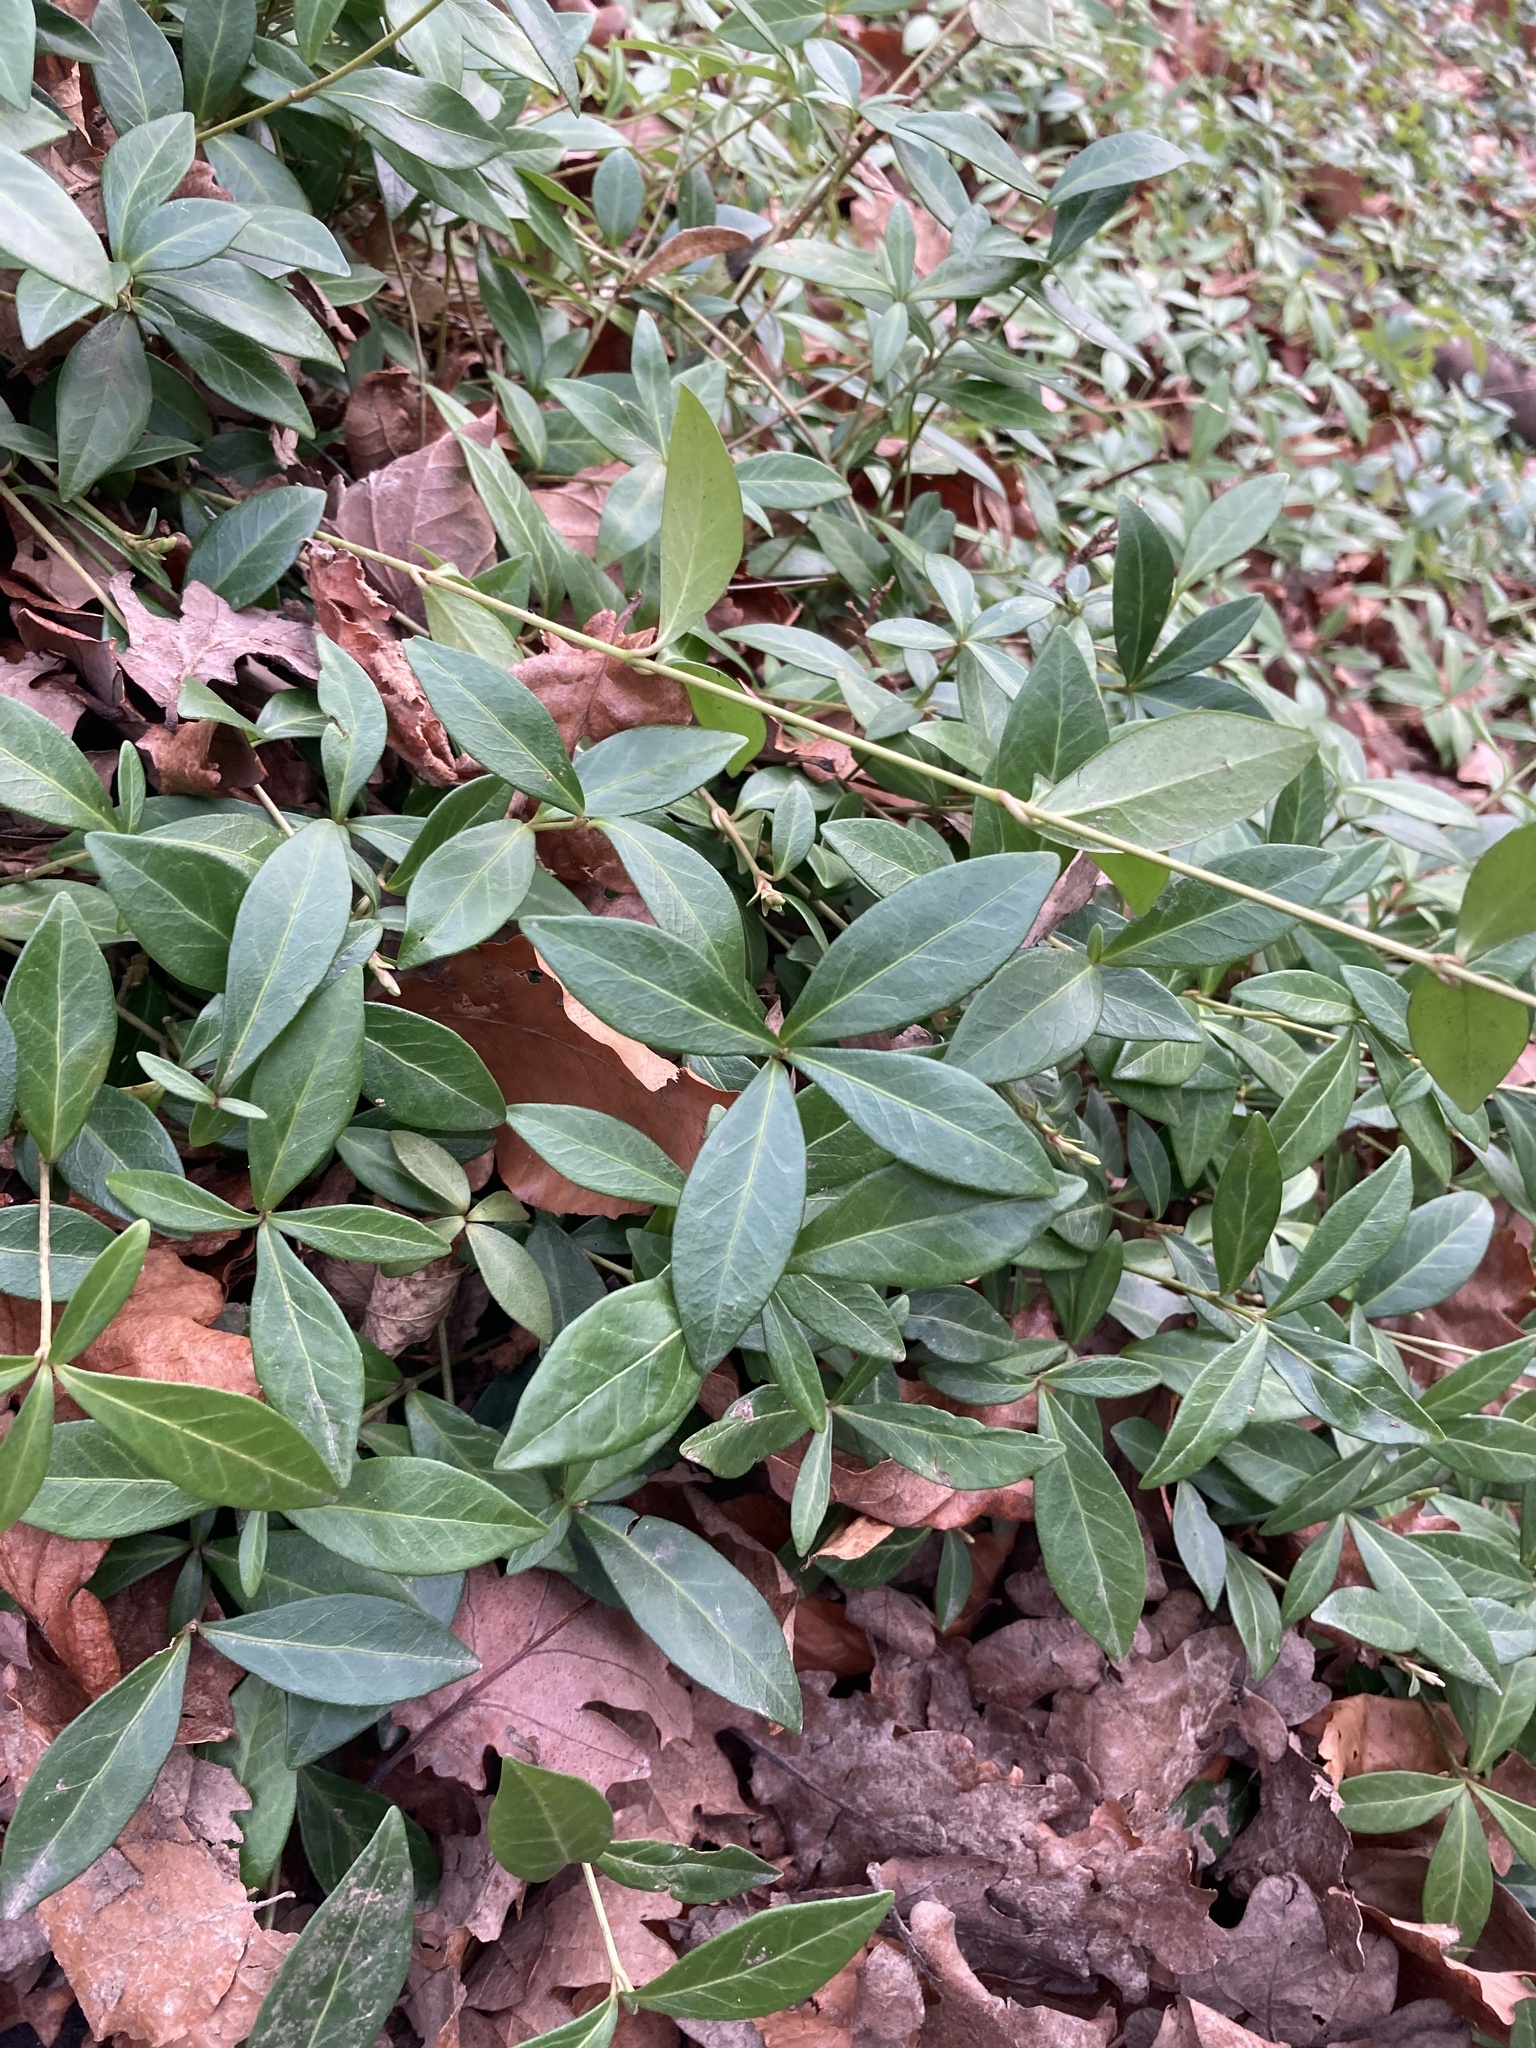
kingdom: Plantae
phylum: Tracheophyta
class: Magnoliopsida
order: Gentianales
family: Apocynaceae
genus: Vinca
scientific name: Vinca minor
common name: Lesser periwinkle
